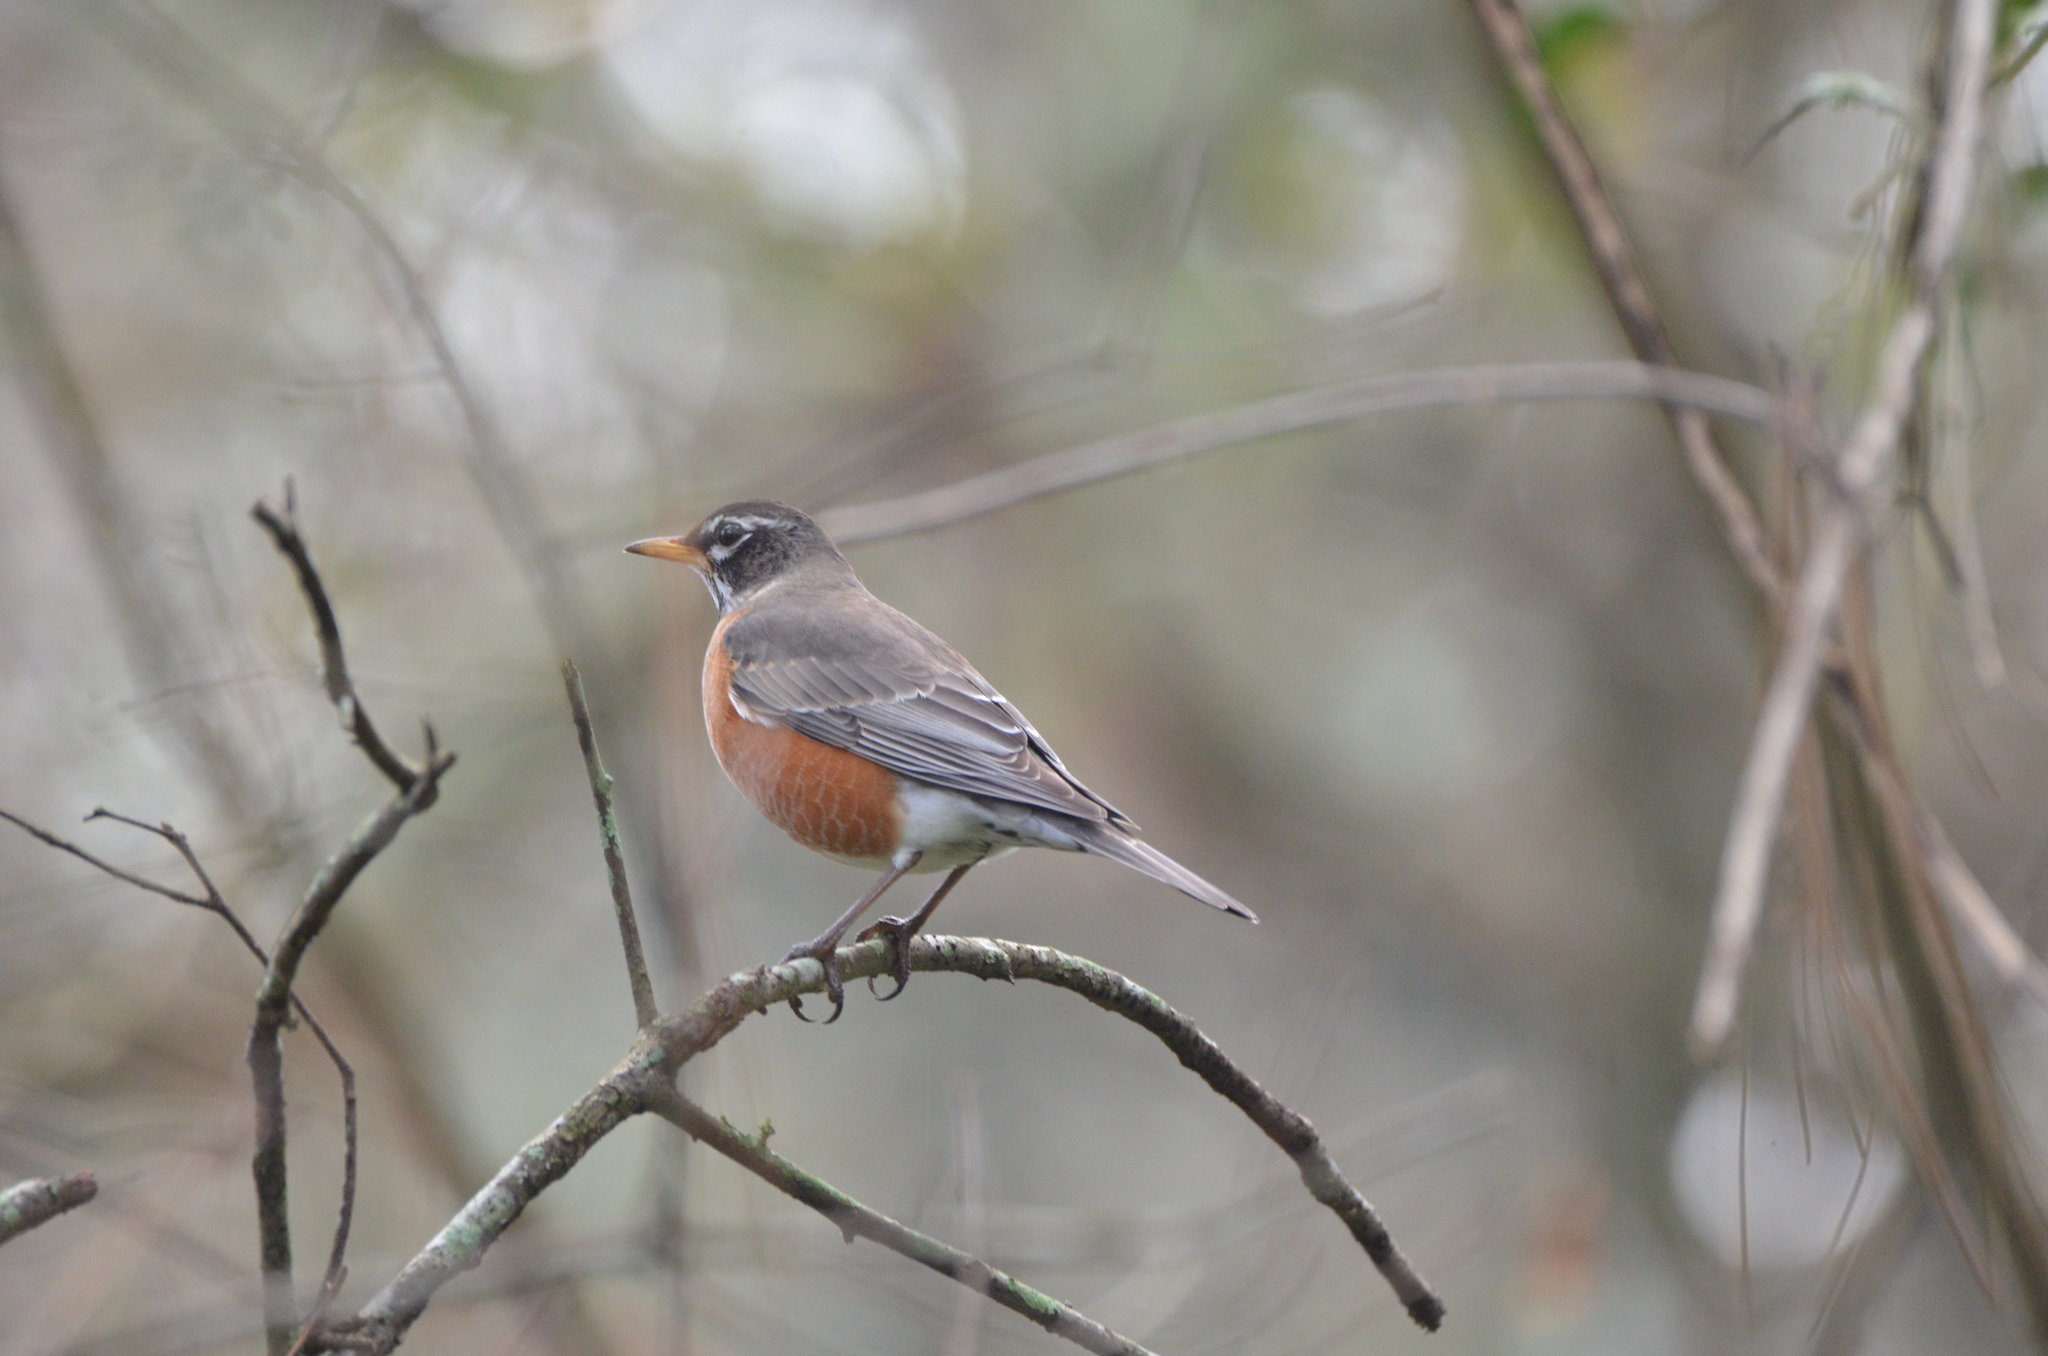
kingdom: Animalia
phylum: Chordata
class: Aves
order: Passeriformes
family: Turdidae
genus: Turdus
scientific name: Turdus migratorius
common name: American robin
